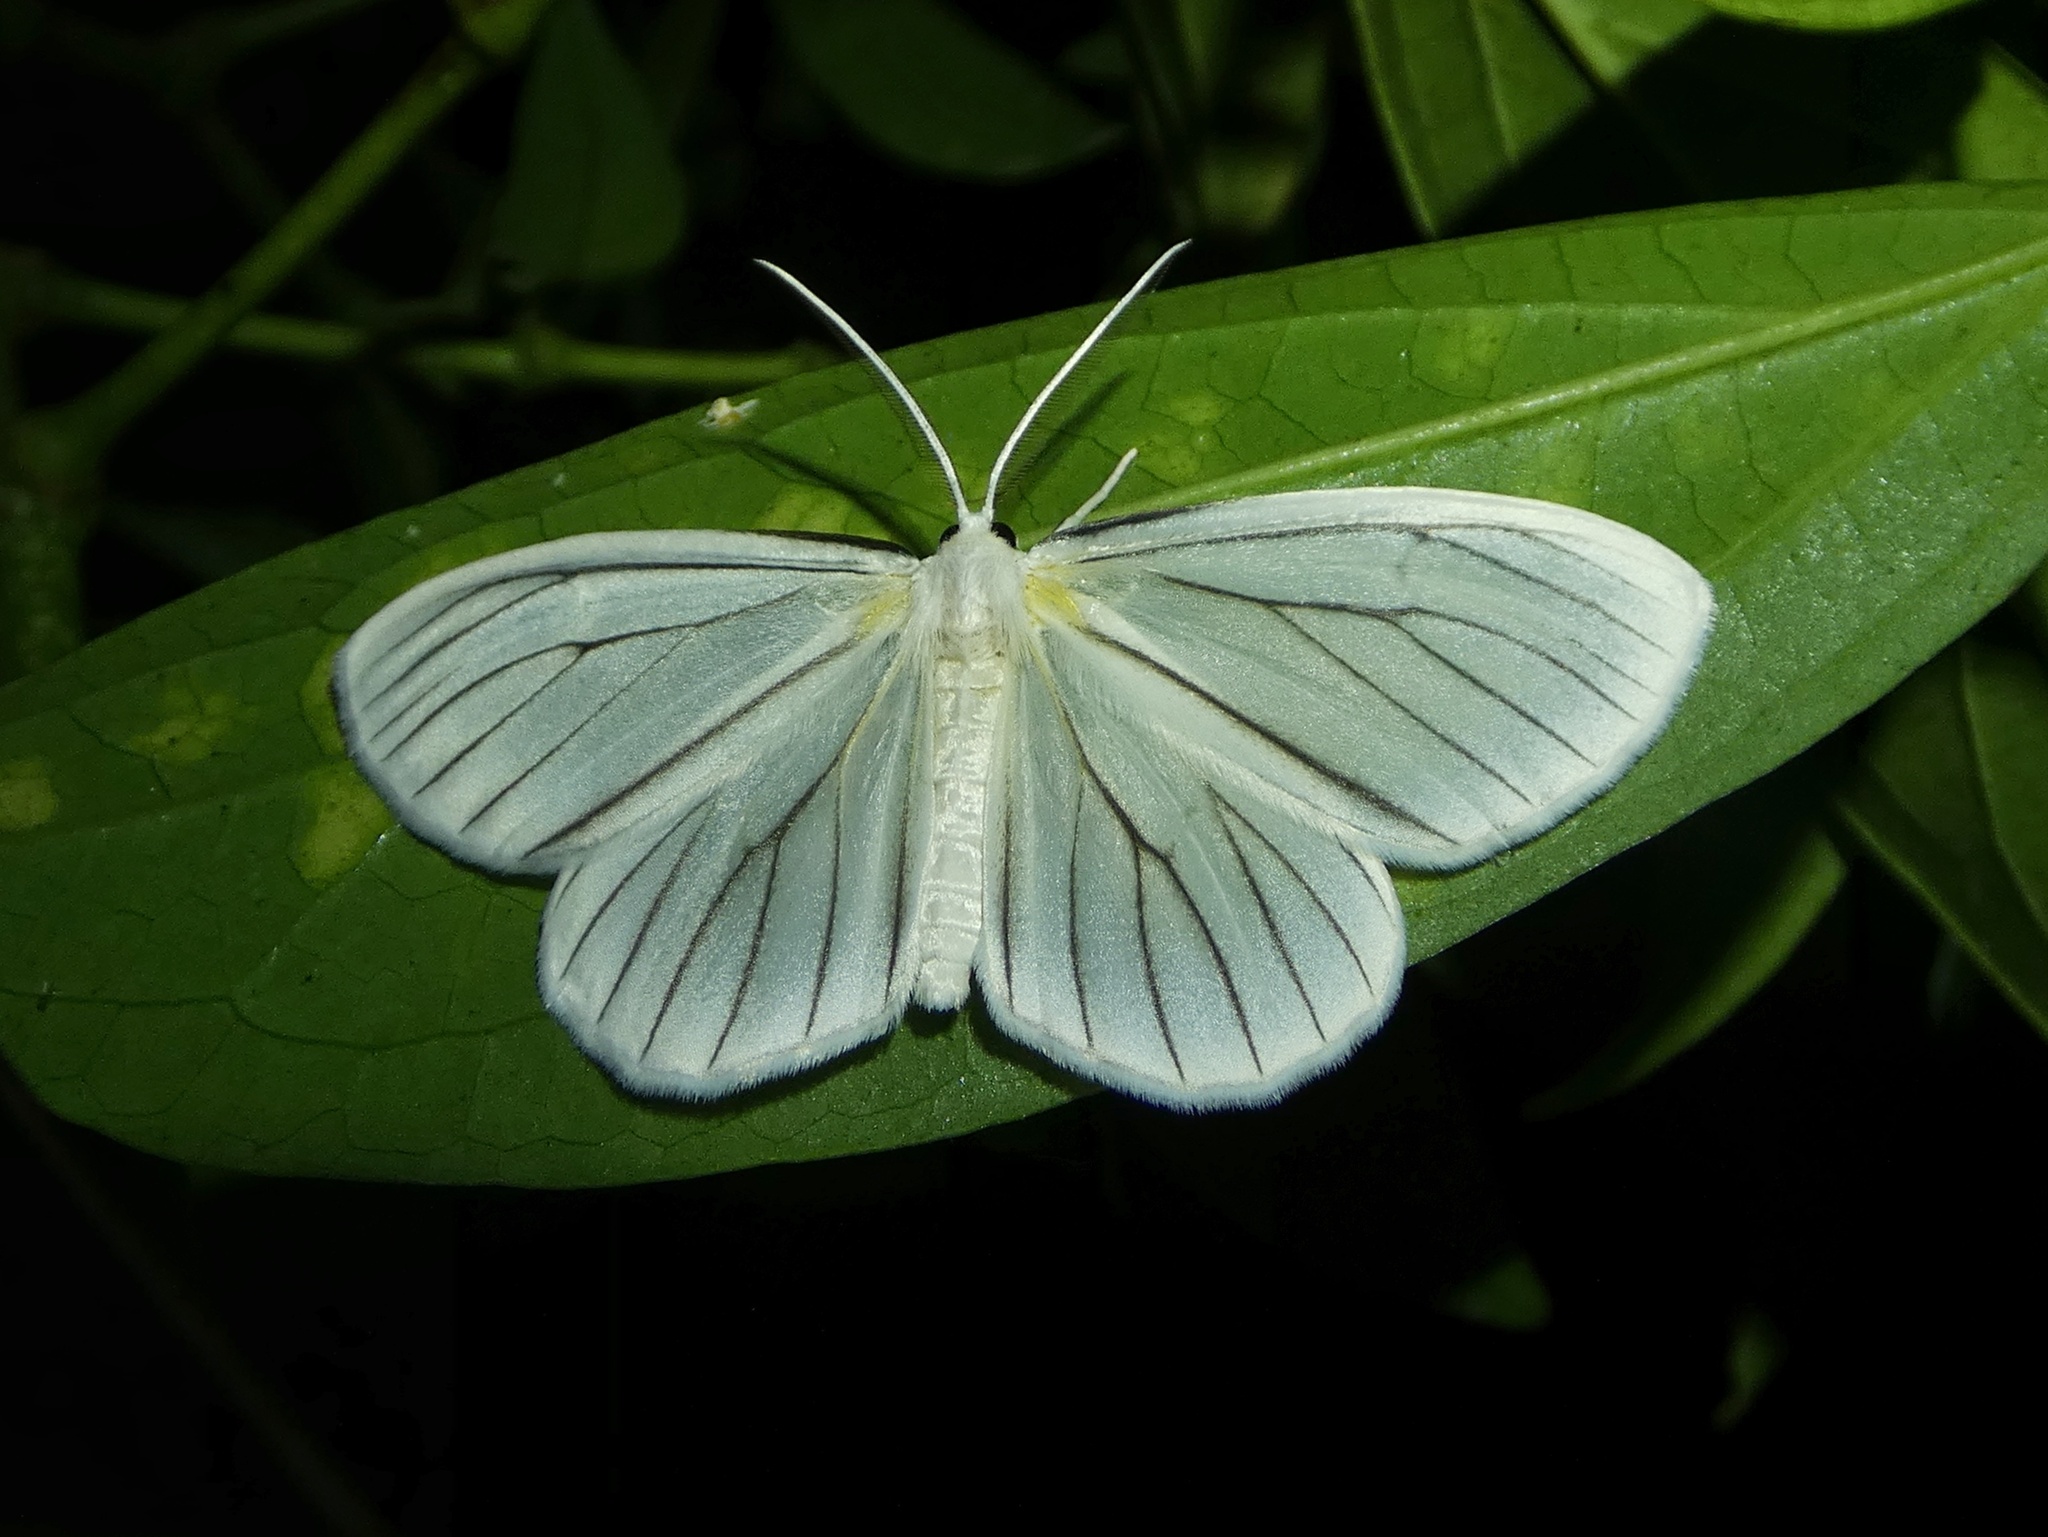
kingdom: Animalia
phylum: Arthropoda
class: Insecta
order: Lepidoptera
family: Geometridae
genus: Leucula
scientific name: Leucula festiva
